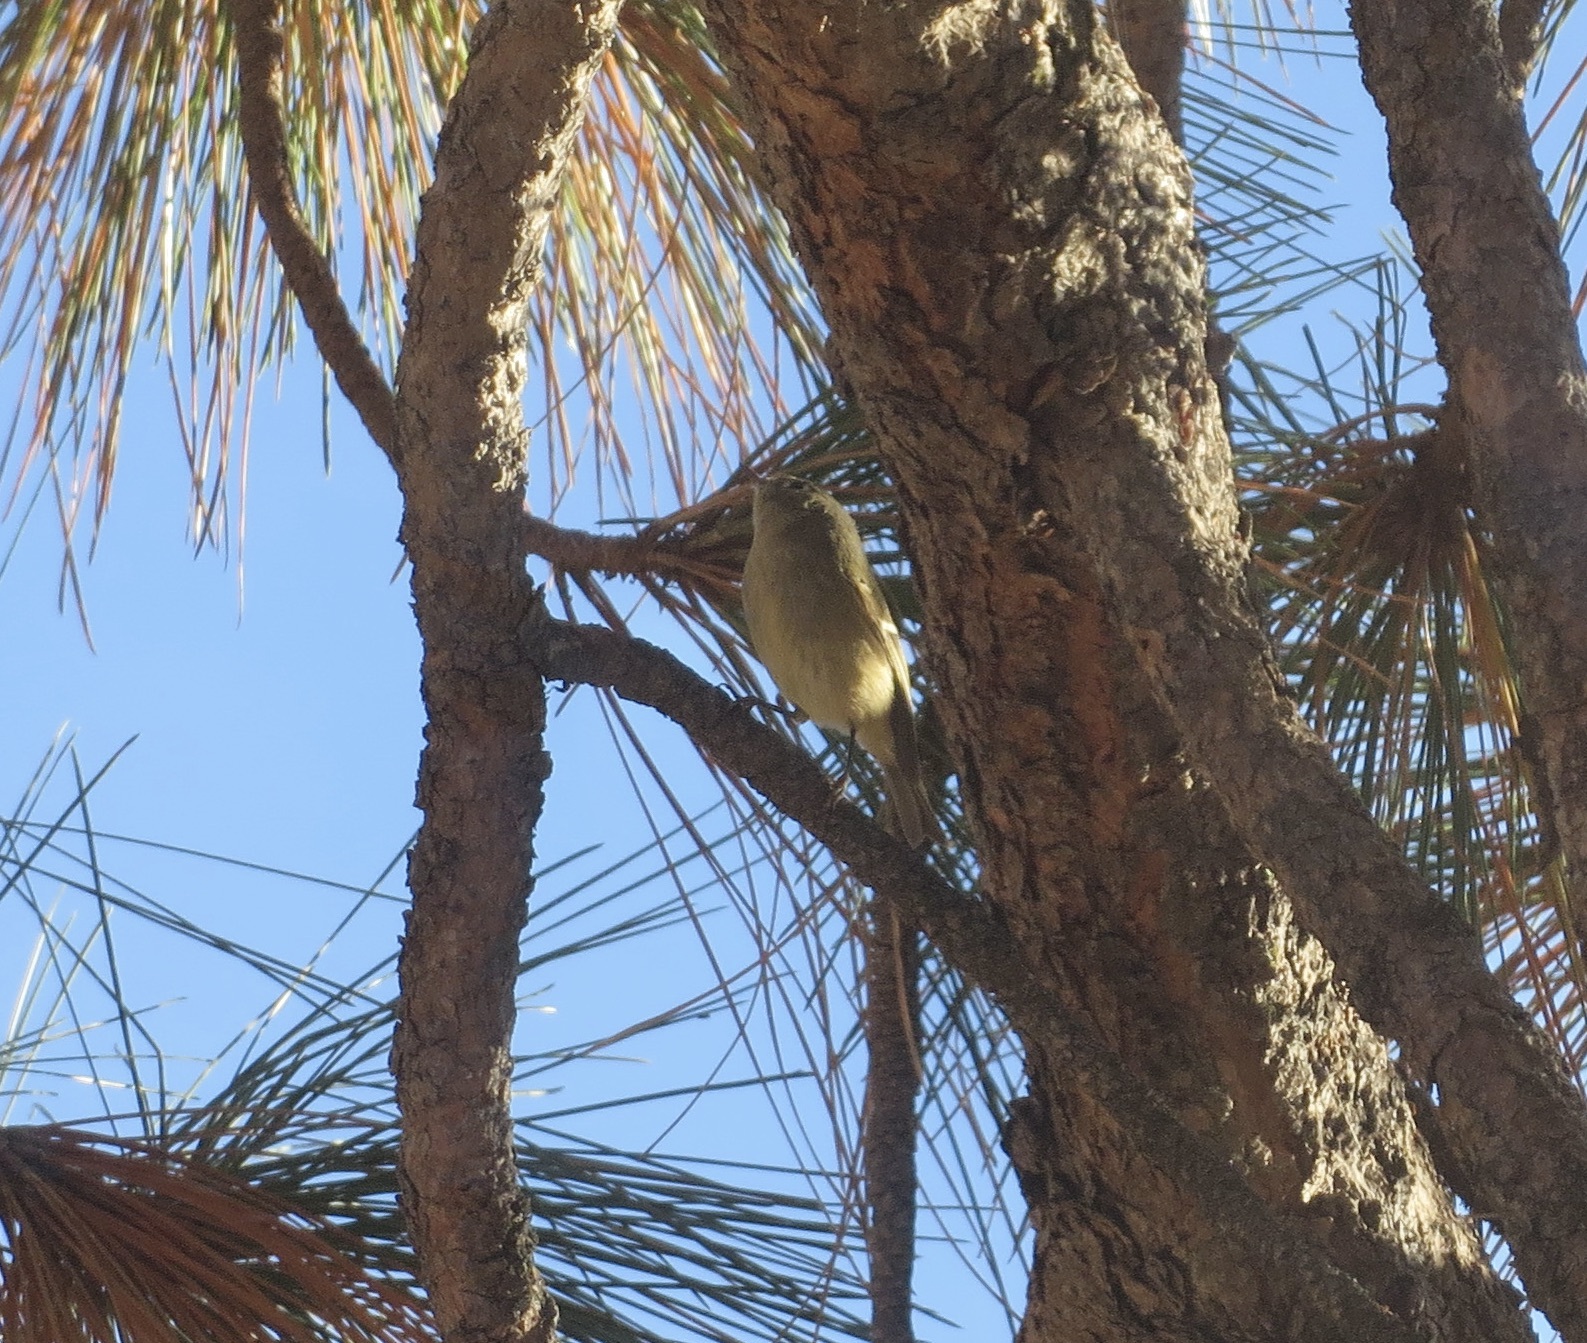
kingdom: Animalia
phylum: Chordata
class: Aves
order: Passeriformes
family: Regulidae
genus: Regulus
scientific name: Regulus calendula
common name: Ruby-crowned kinglet
